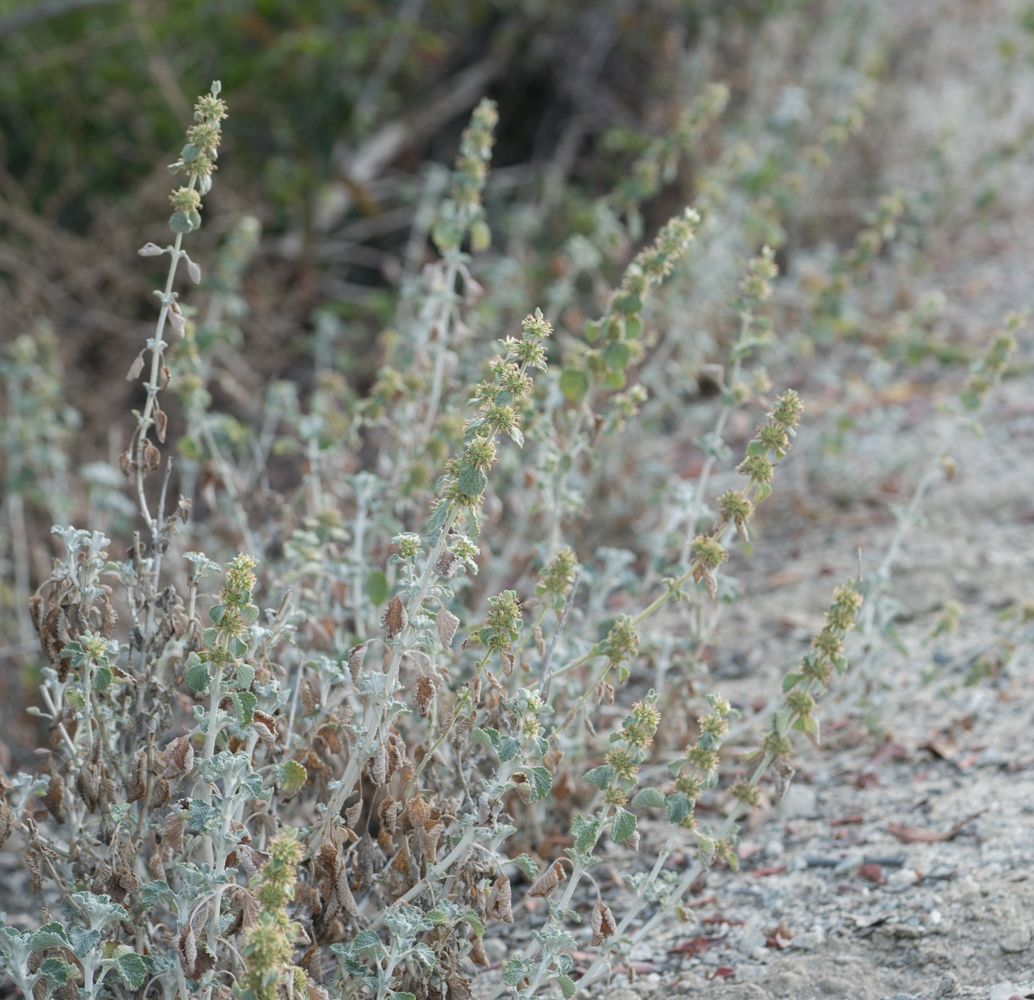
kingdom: Plantae
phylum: Tracheophyta
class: Magnoliopsida
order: Lamiales
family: Lamiaceae
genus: Marrubium
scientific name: Marrubium vulgare
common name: Horehound
